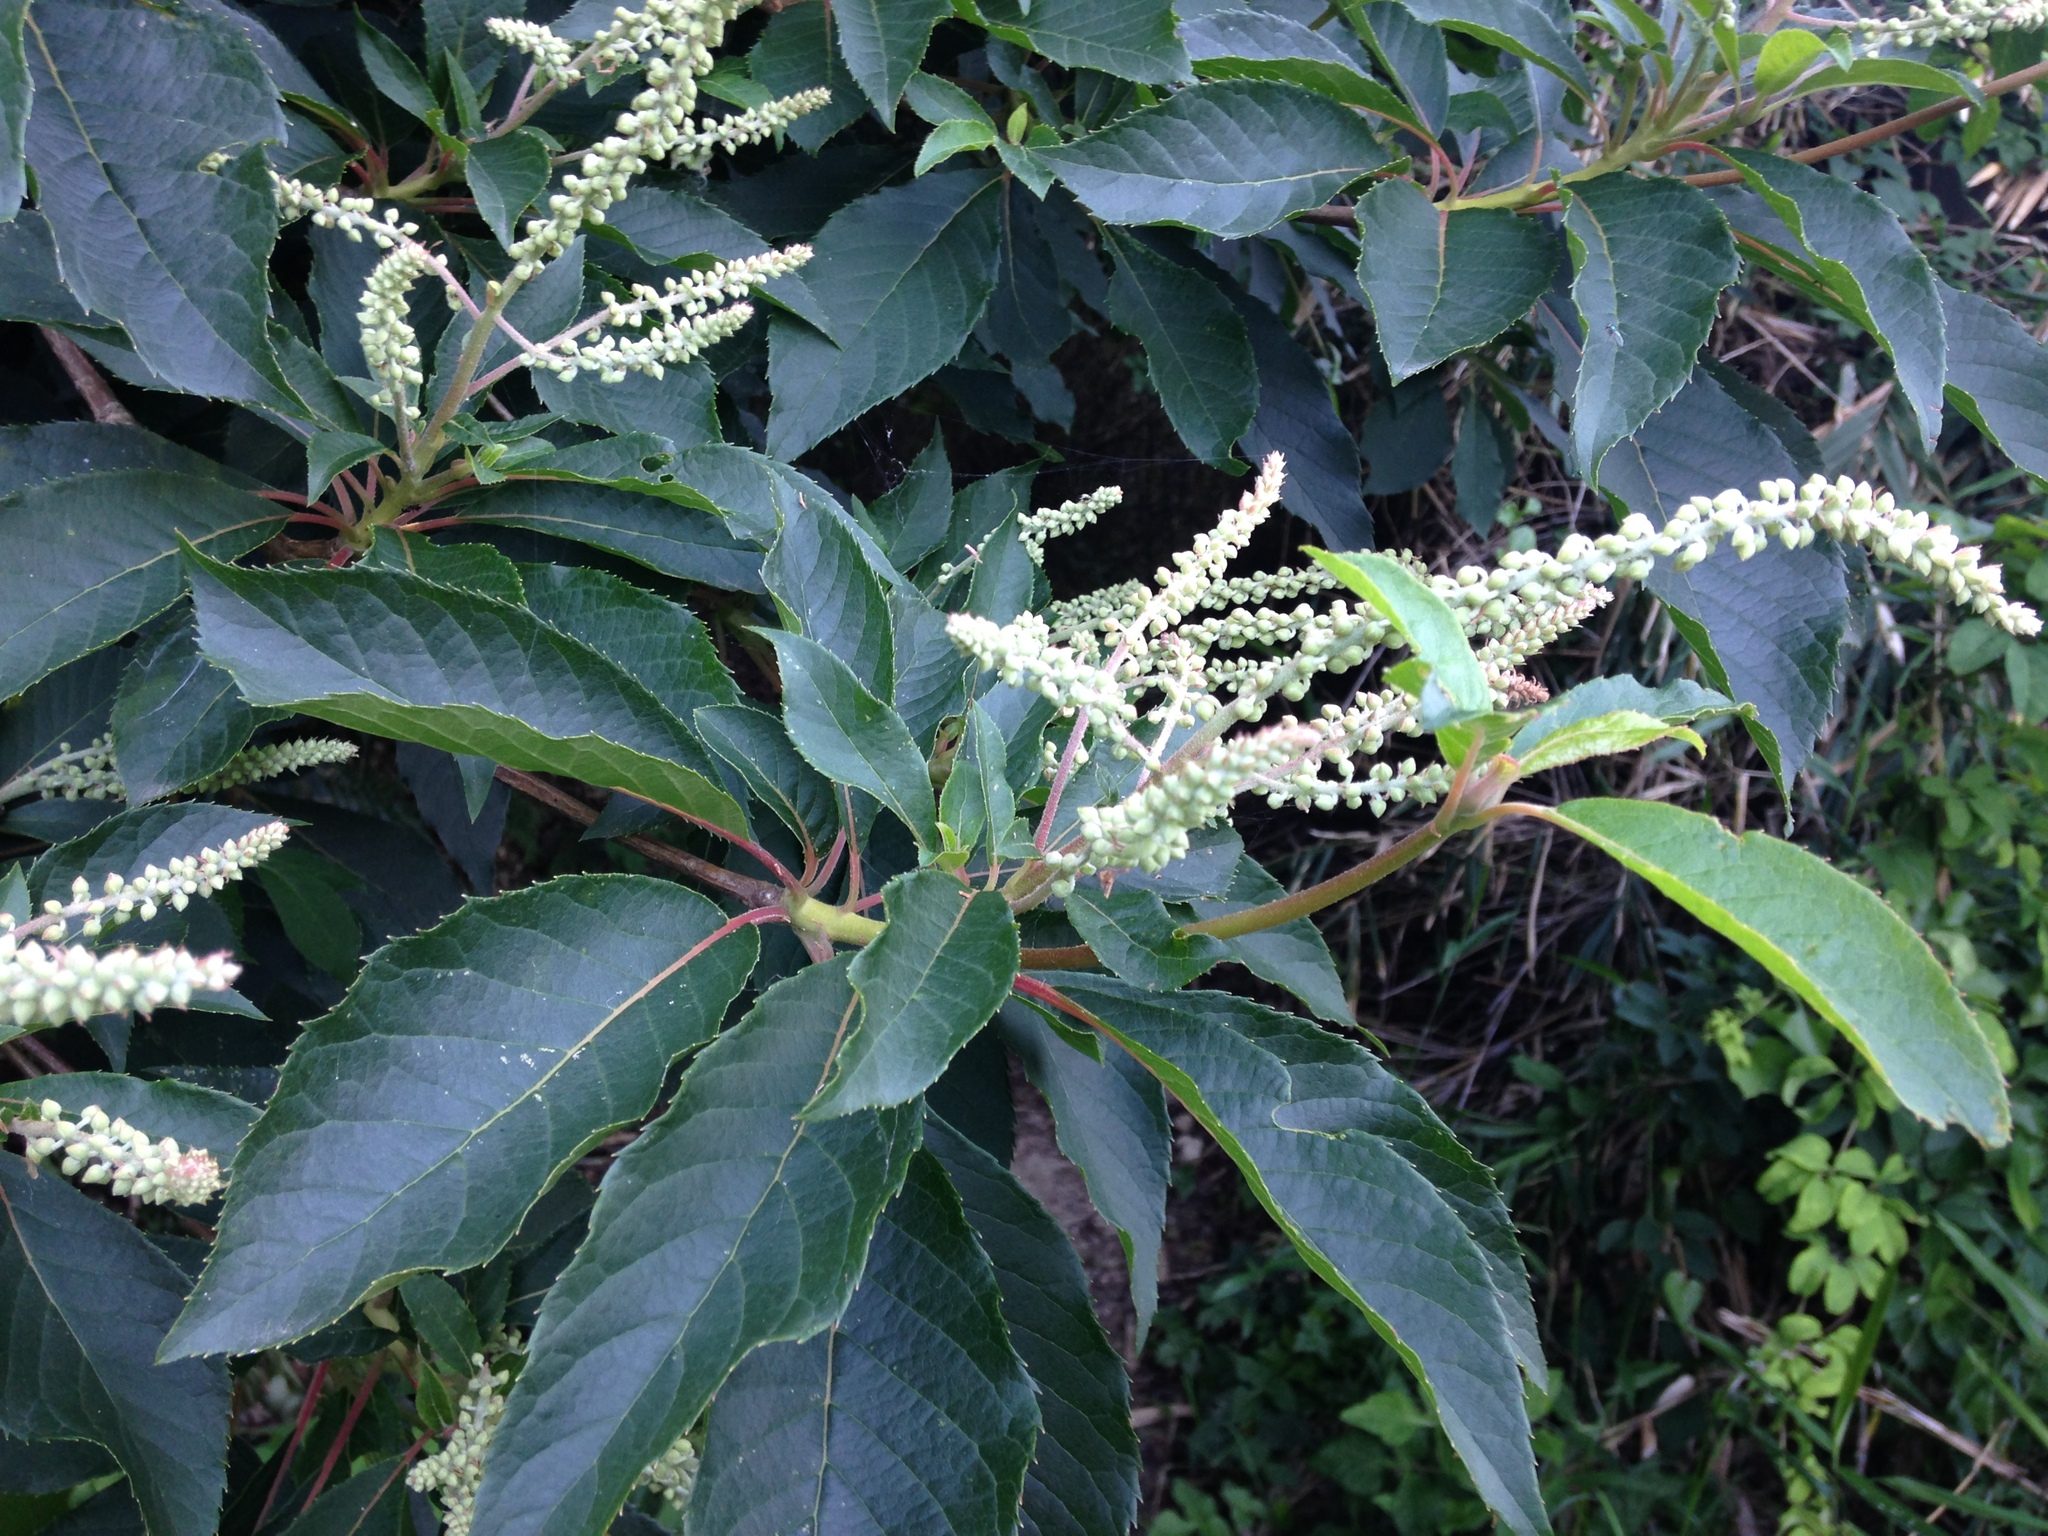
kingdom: Plantae
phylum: Tracheophyta
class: Magnoliopsida
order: Ericales
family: Clethraceae
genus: Clethra
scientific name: Clethra barbinervis
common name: Japanese clethra
